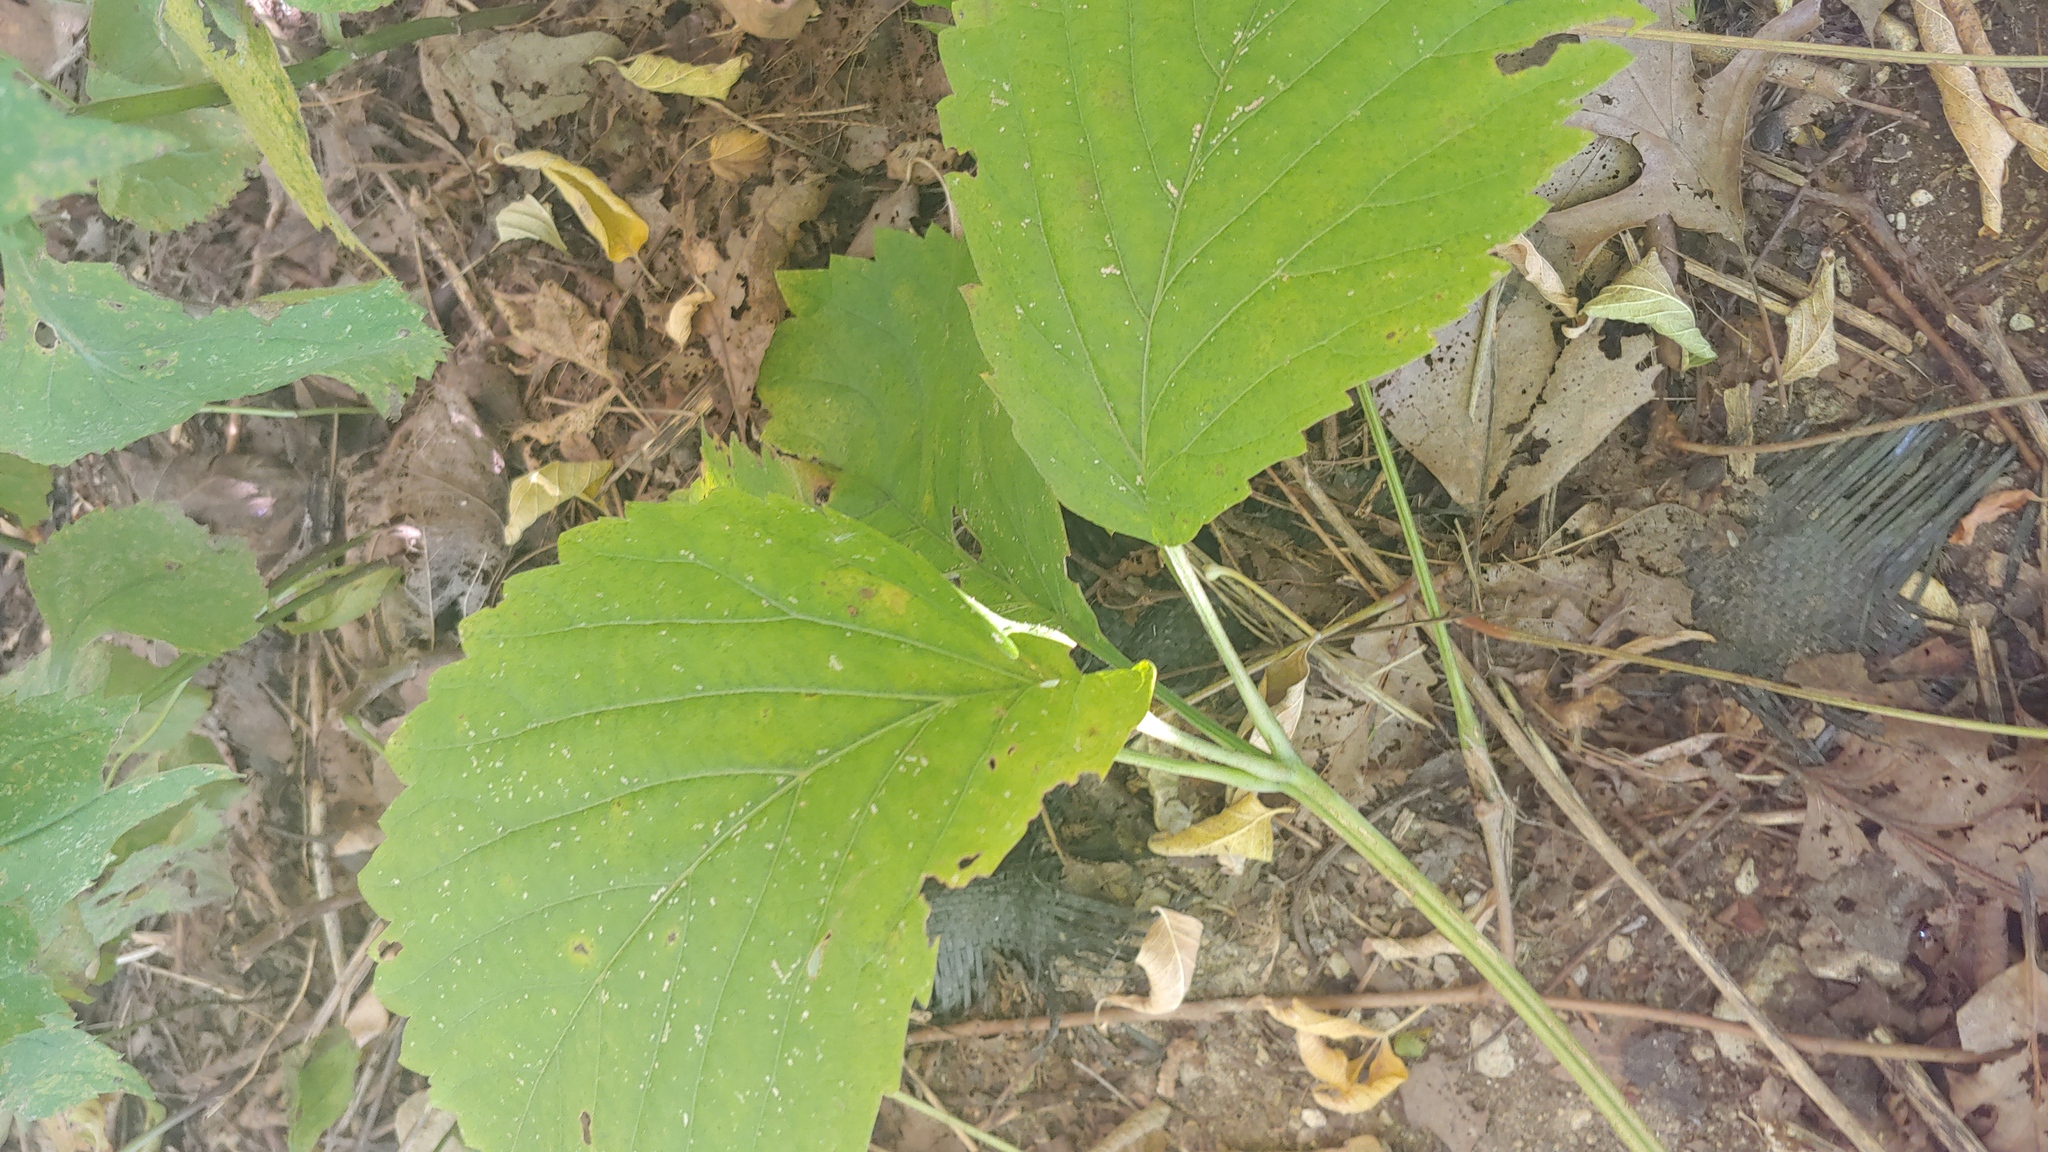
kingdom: Plantae
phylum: Tracheophyta
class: Magnoliopsida
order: Vitales
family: Vitaceae
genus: Parthenocissus
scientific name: Parthenocissus inserta
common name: False virginia-creeper
